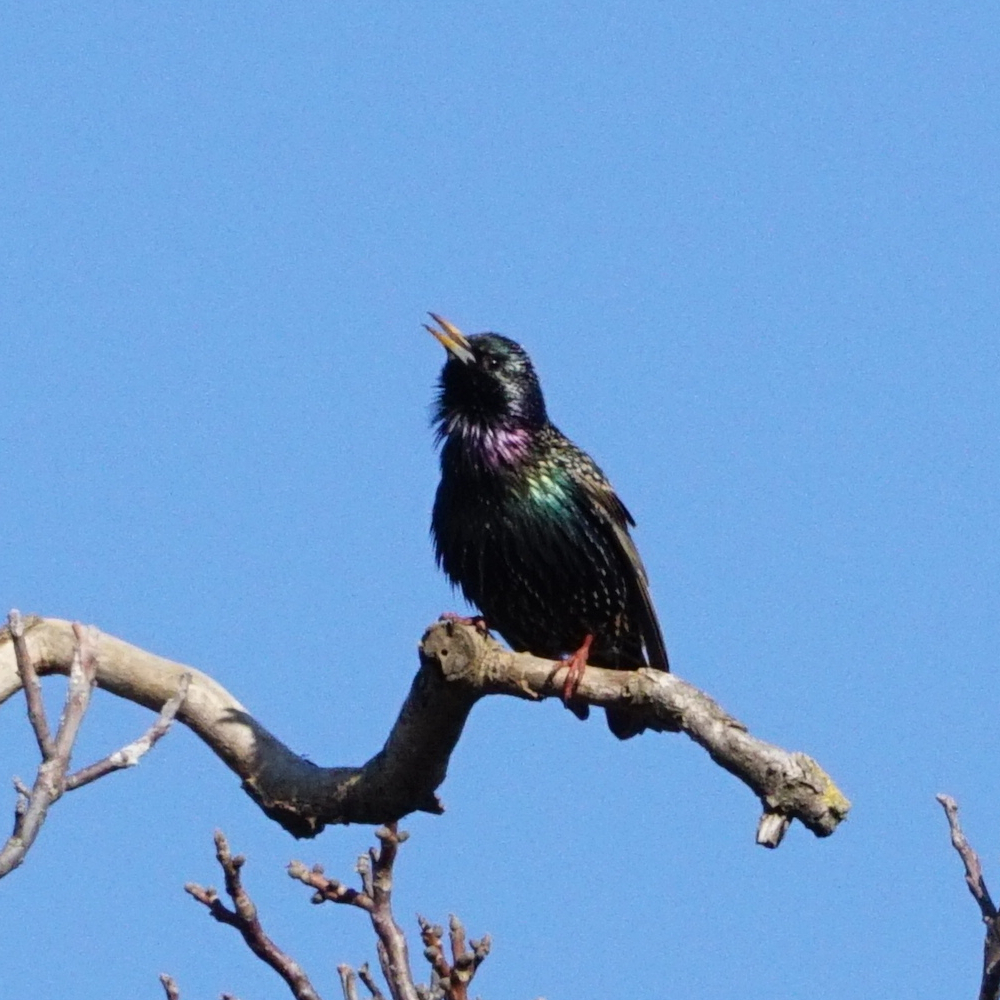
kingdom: Animalia
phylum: Chordata
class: Aves
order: Passeriformes
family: Sturnidae
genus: Sturnus
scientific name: Sturnus vulgaris
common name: Common starling
